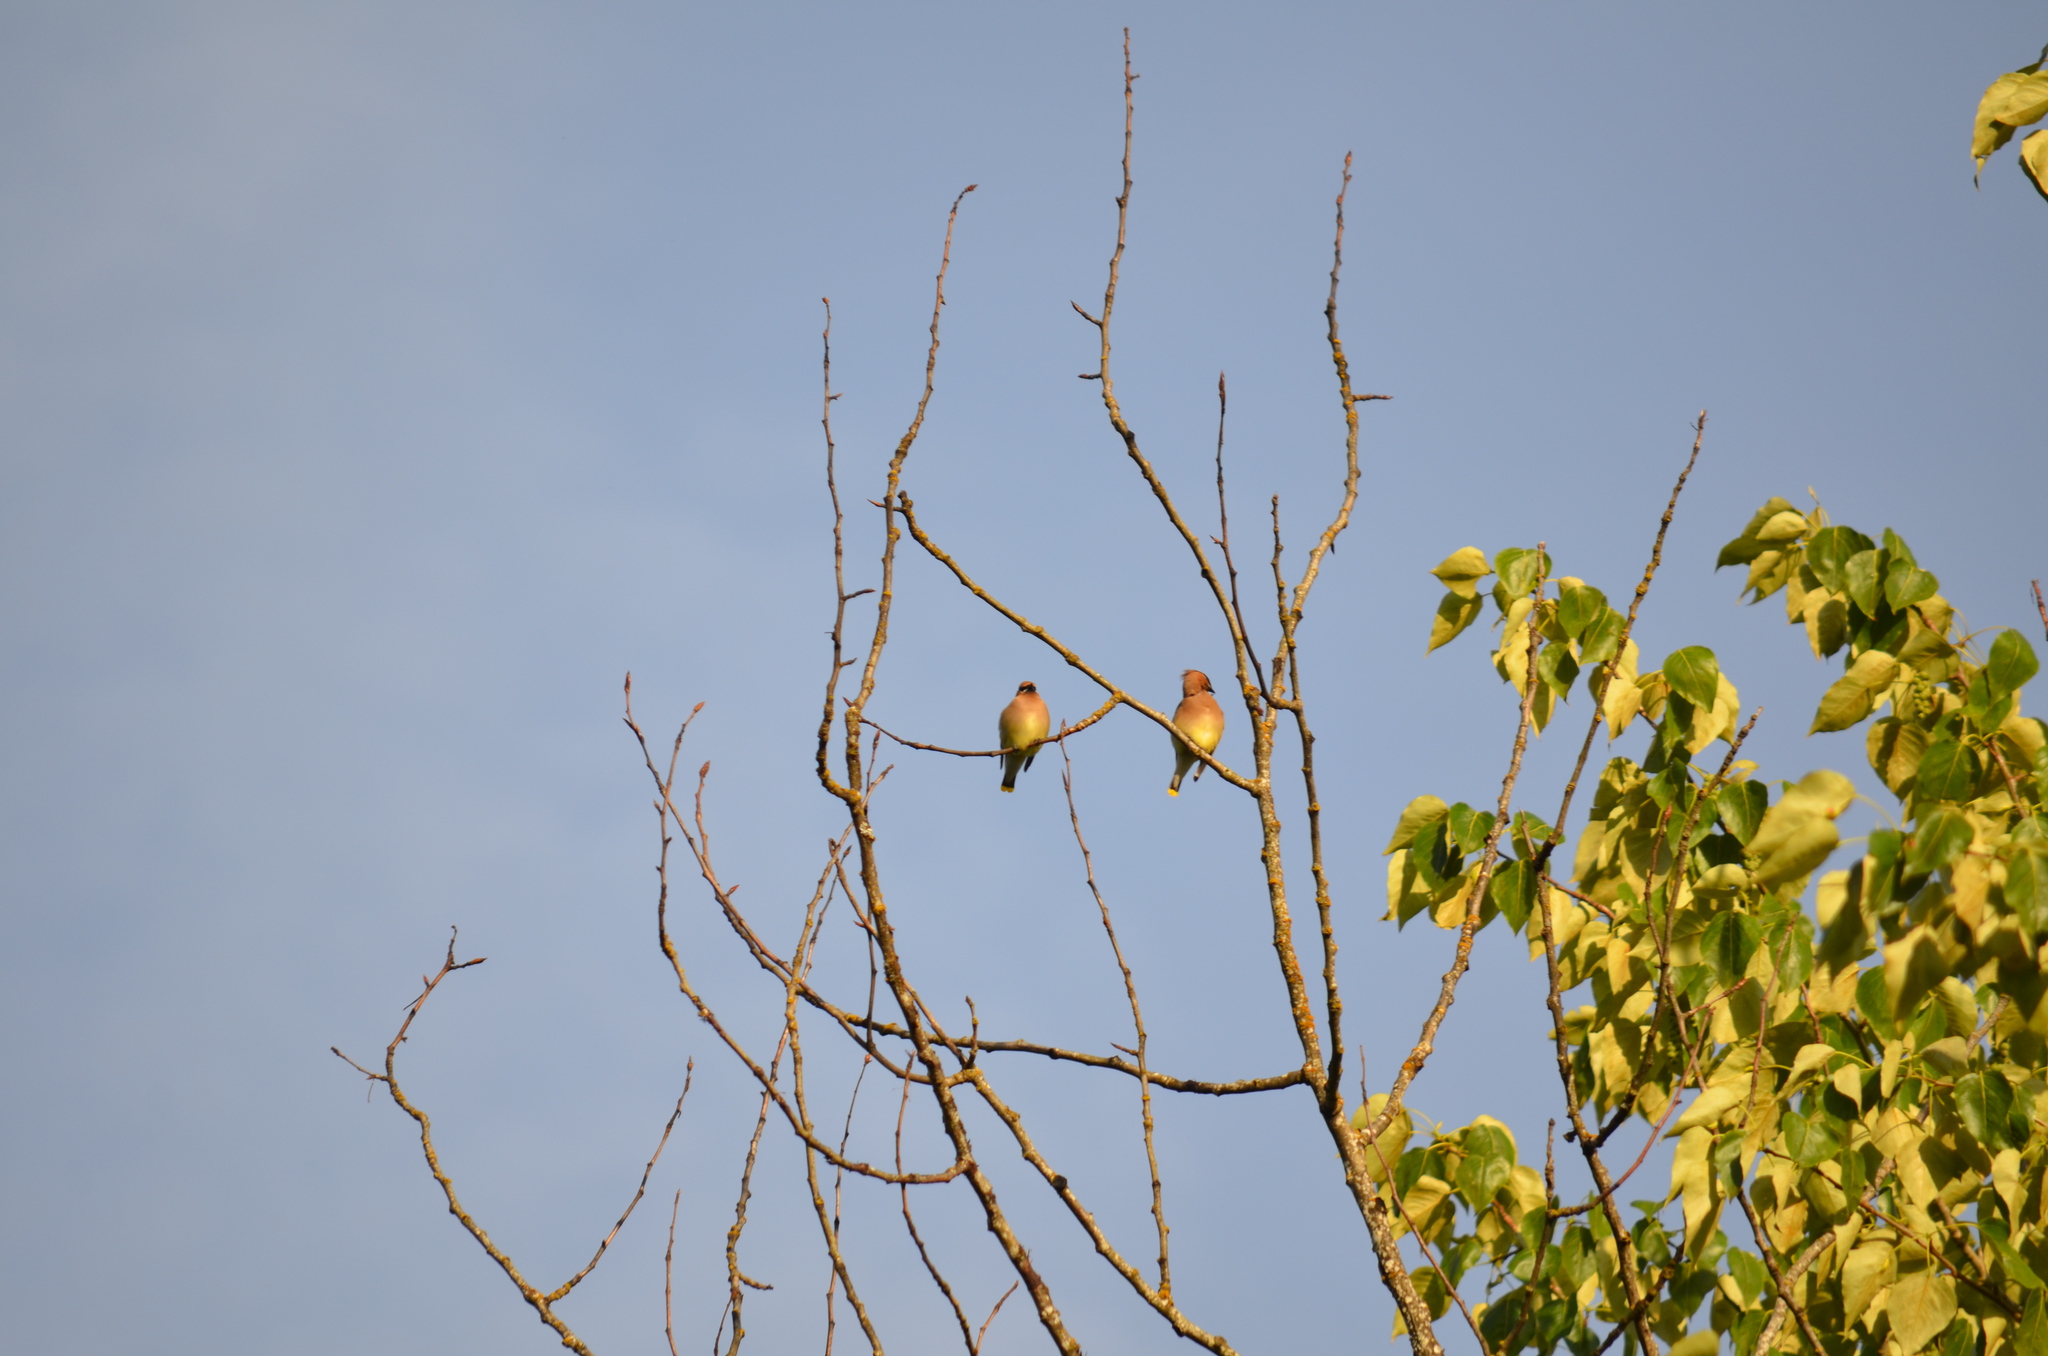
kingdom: Animalia
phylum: Chordata
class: Aves
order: Passeriformes
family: Bombycillidae
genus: Bombycilla
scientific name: Bombycilla cedrorum
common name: Cedar waxwing
